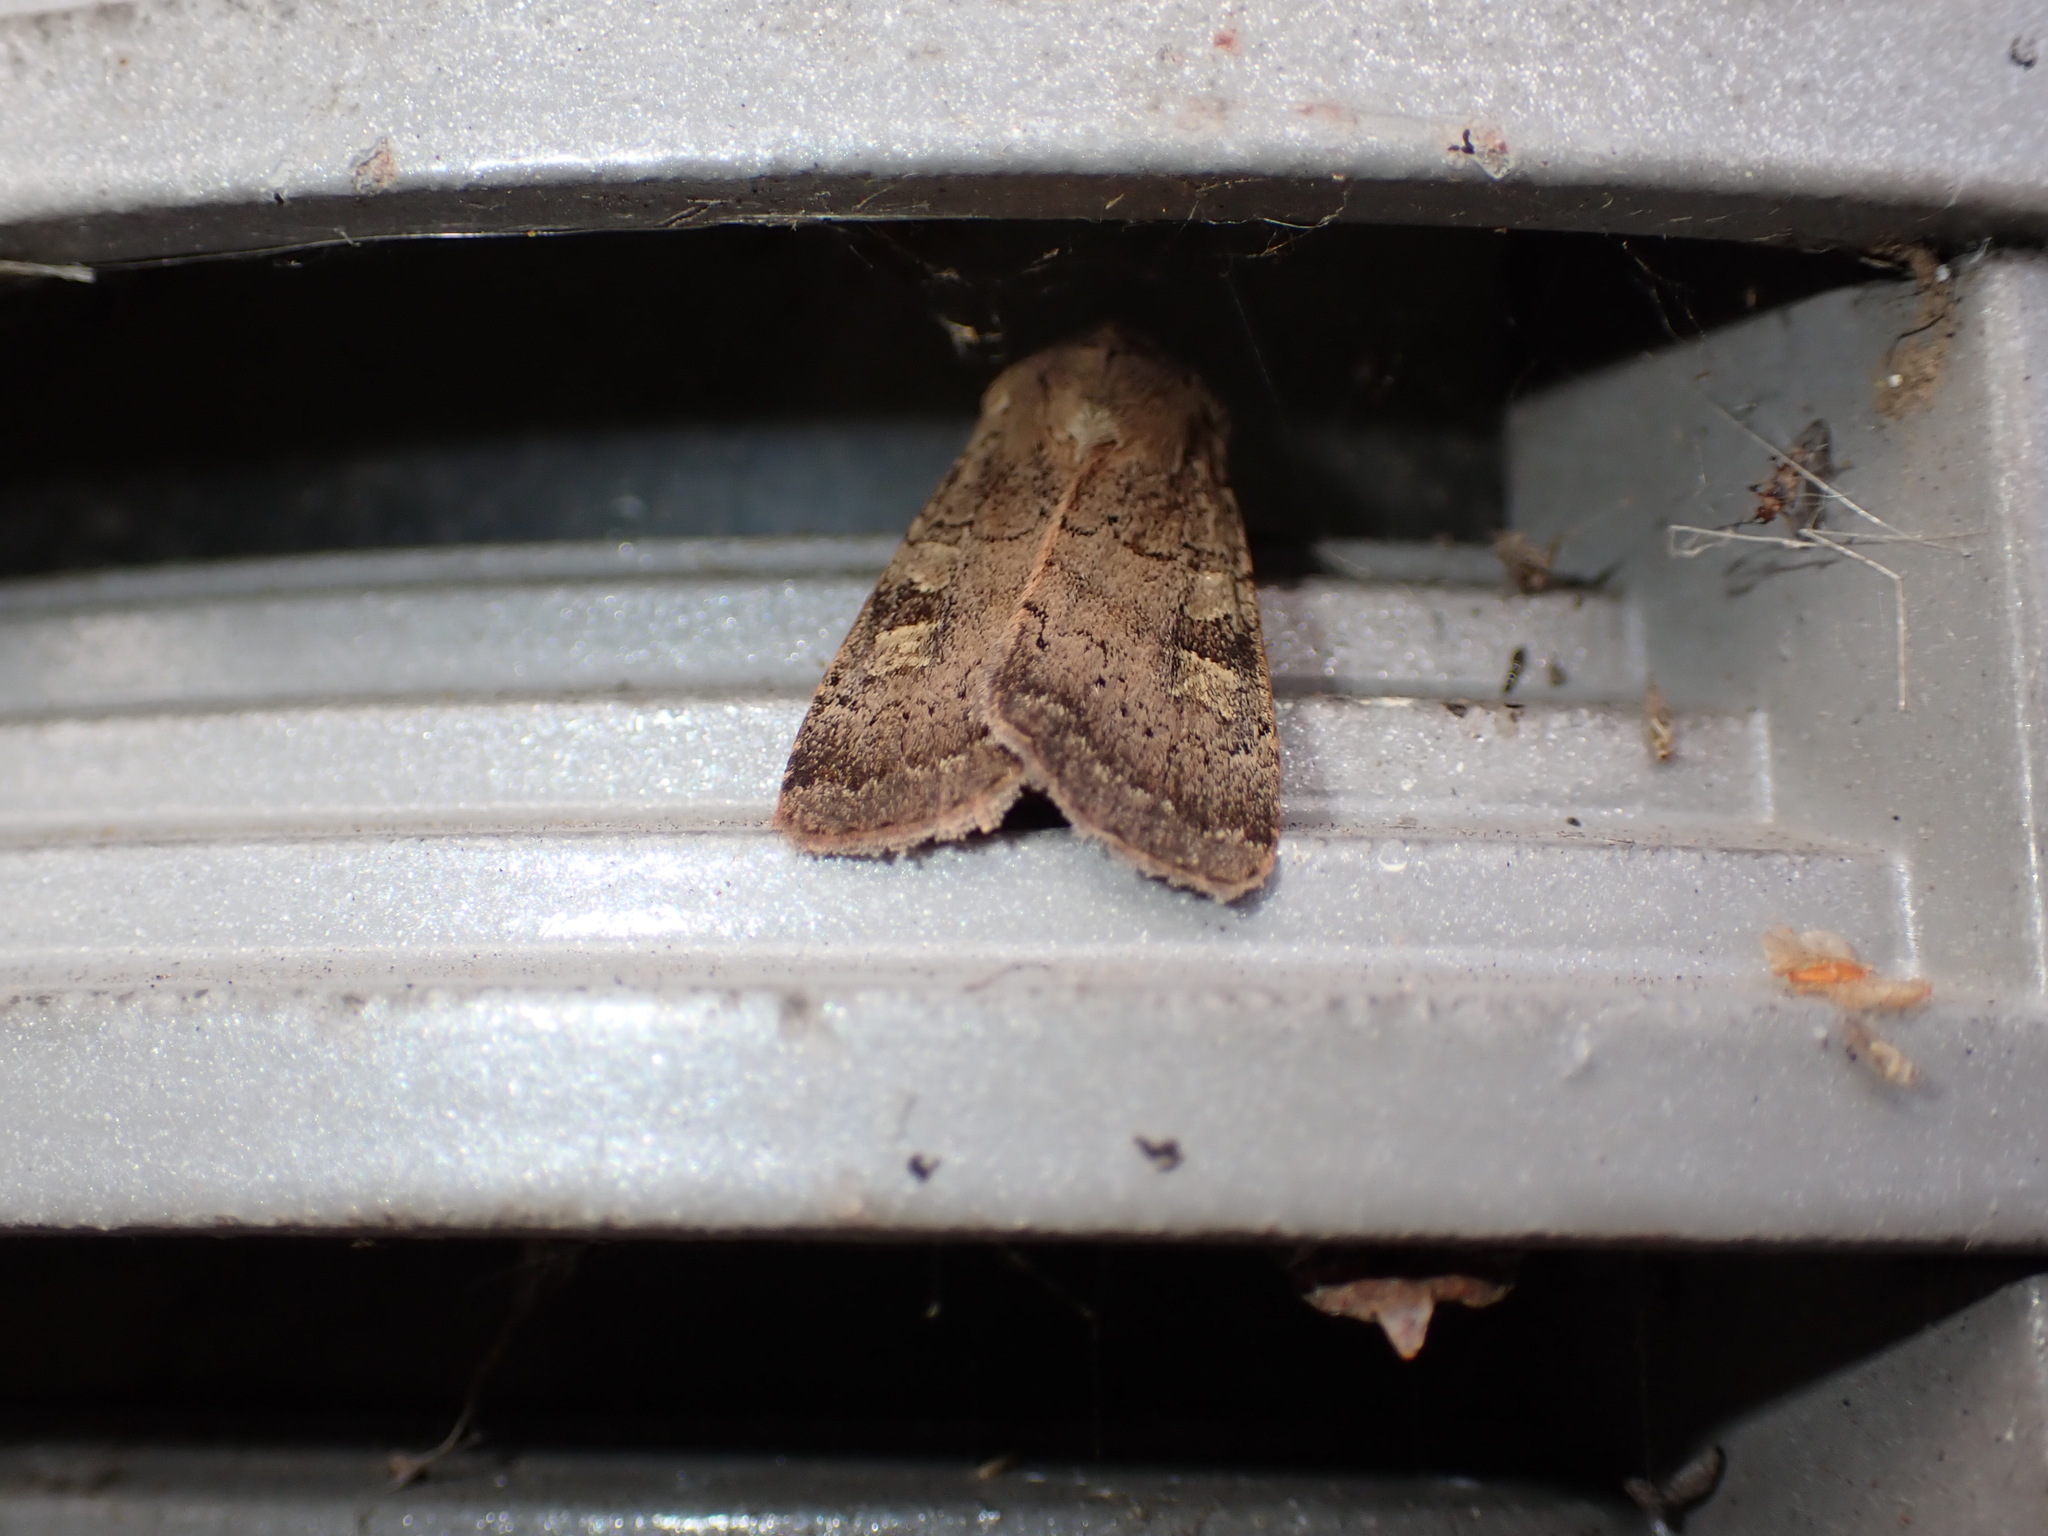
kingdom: Animalia
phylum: Arthropoda
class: Insecta
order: Lepidoptera
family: Noctuidae
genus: Xestia
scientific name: Xestia xanthographa
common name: Square-spot rustic
